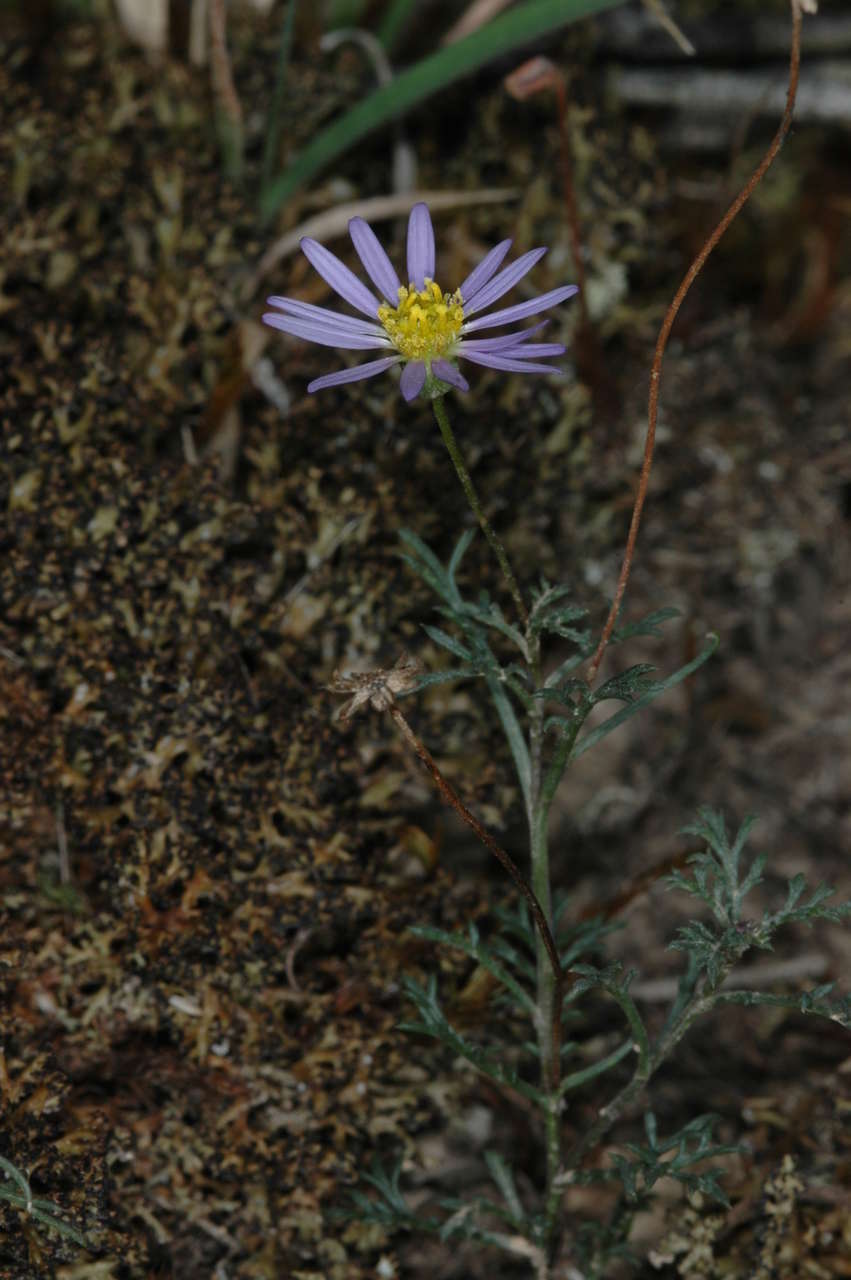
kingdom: Plantae
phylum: Tracheophyta
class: Magnoliopsida
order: Asterales
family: Asteraceae
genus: Brachyscome
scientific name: Brachyscome multifida
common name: Cut-leaf daisy
